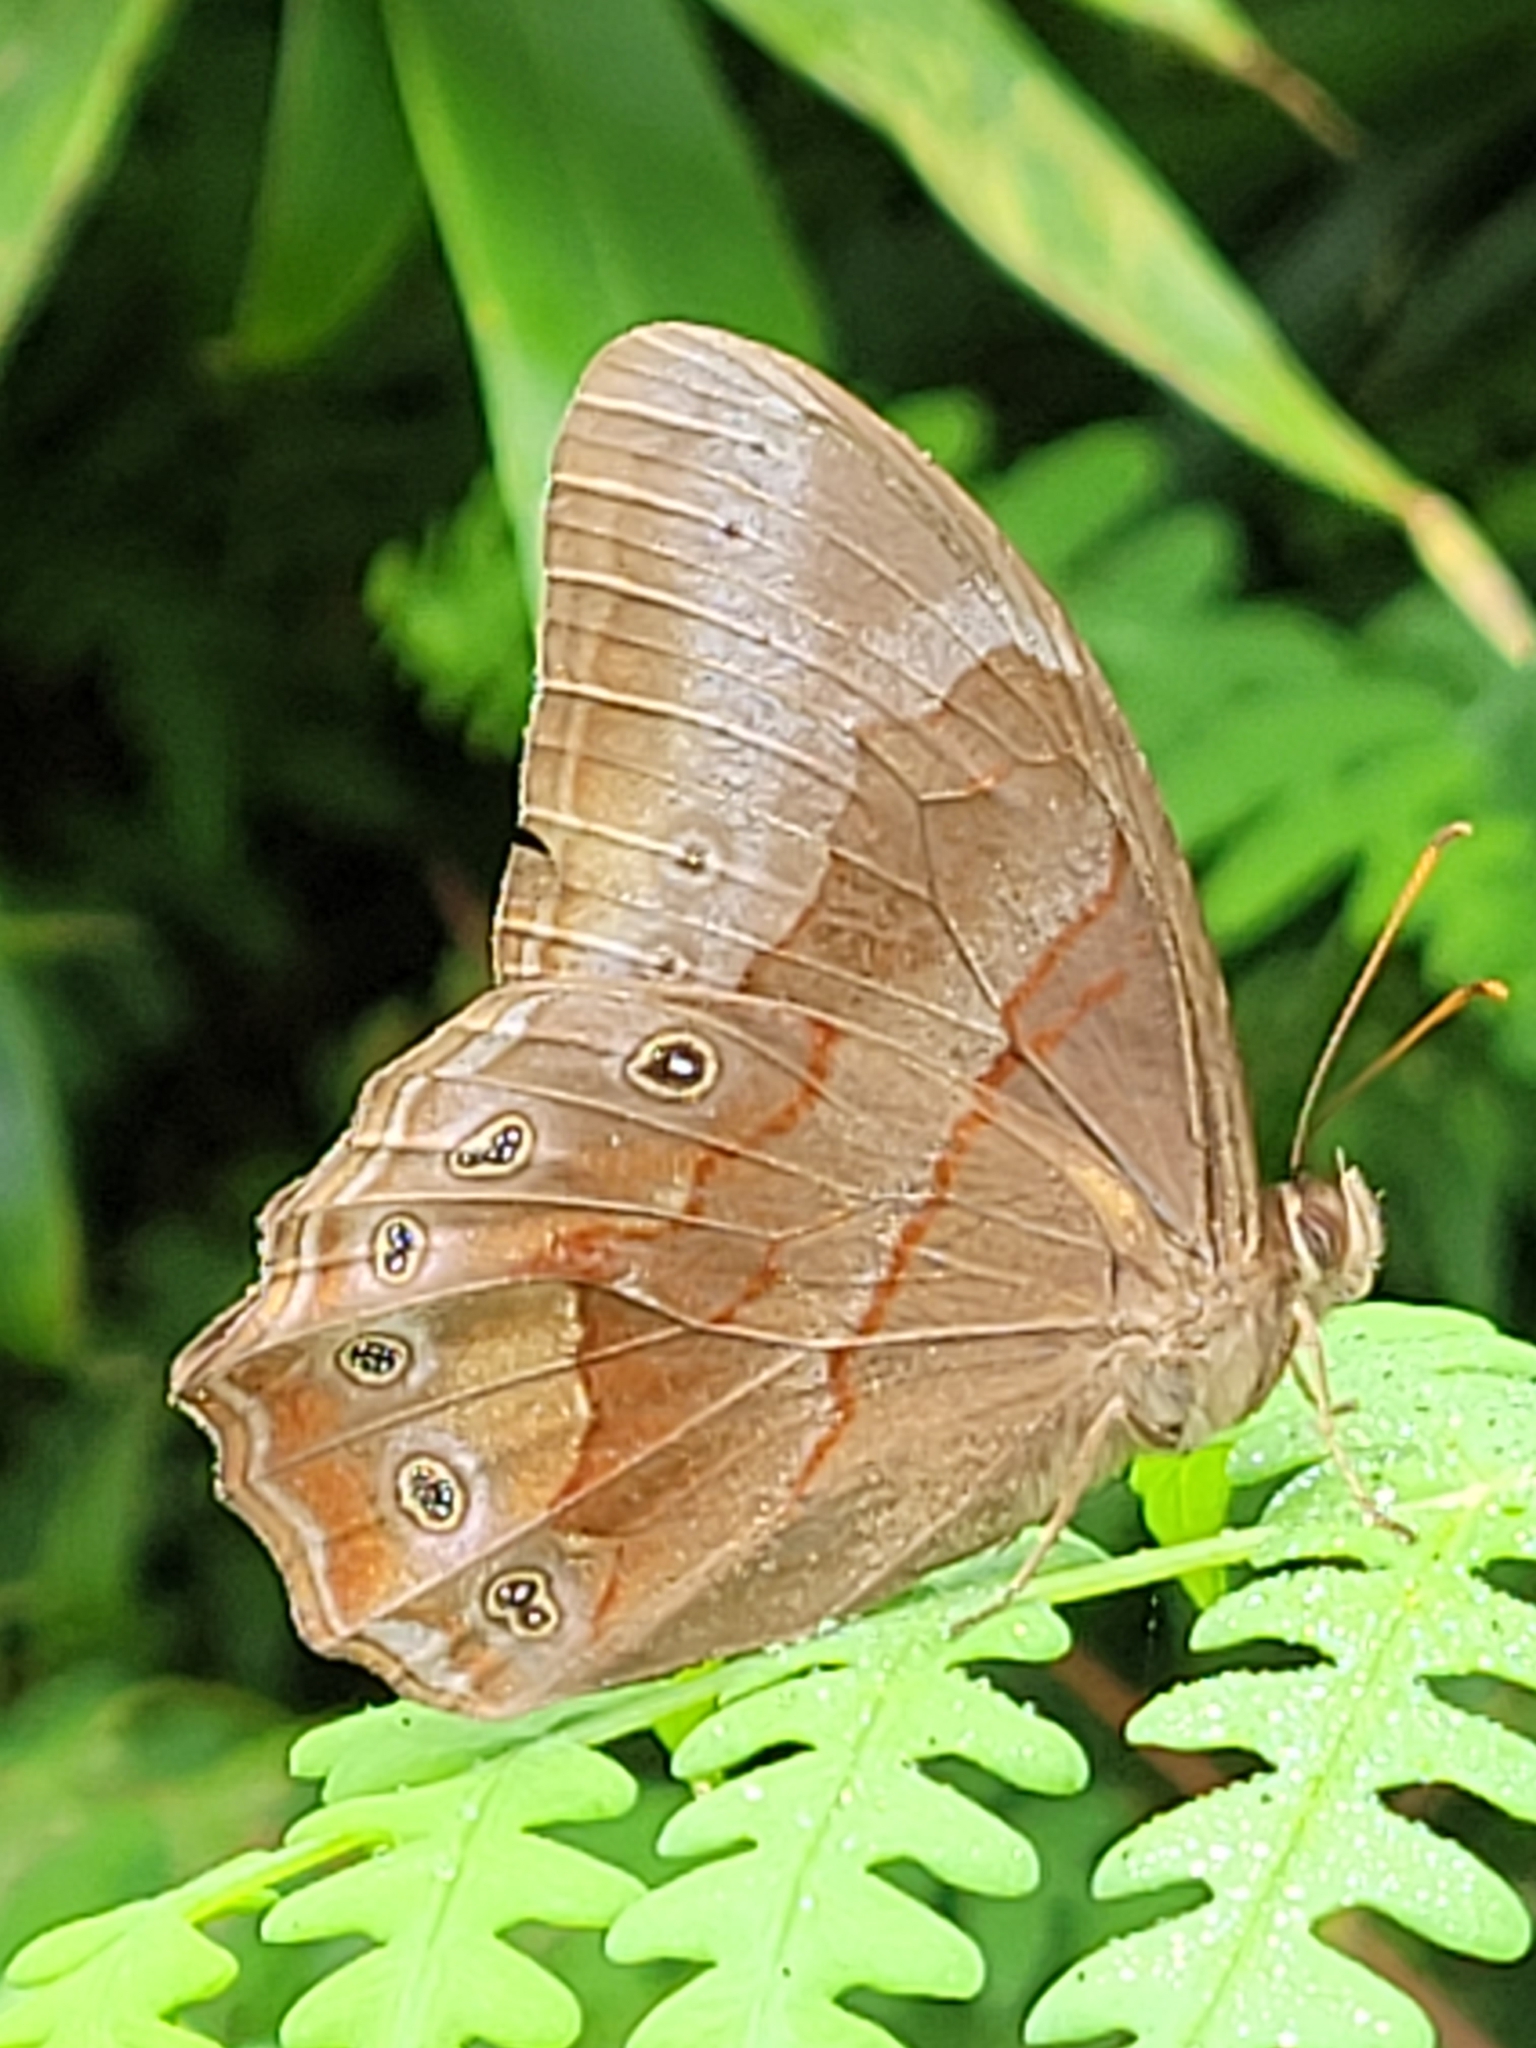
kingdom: Animalia
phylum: Arthropoda
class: Insecta
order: Lepidoptera
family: Nymphalidae
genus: Lethe
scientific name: Lethe chandica
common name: Angled red forester
